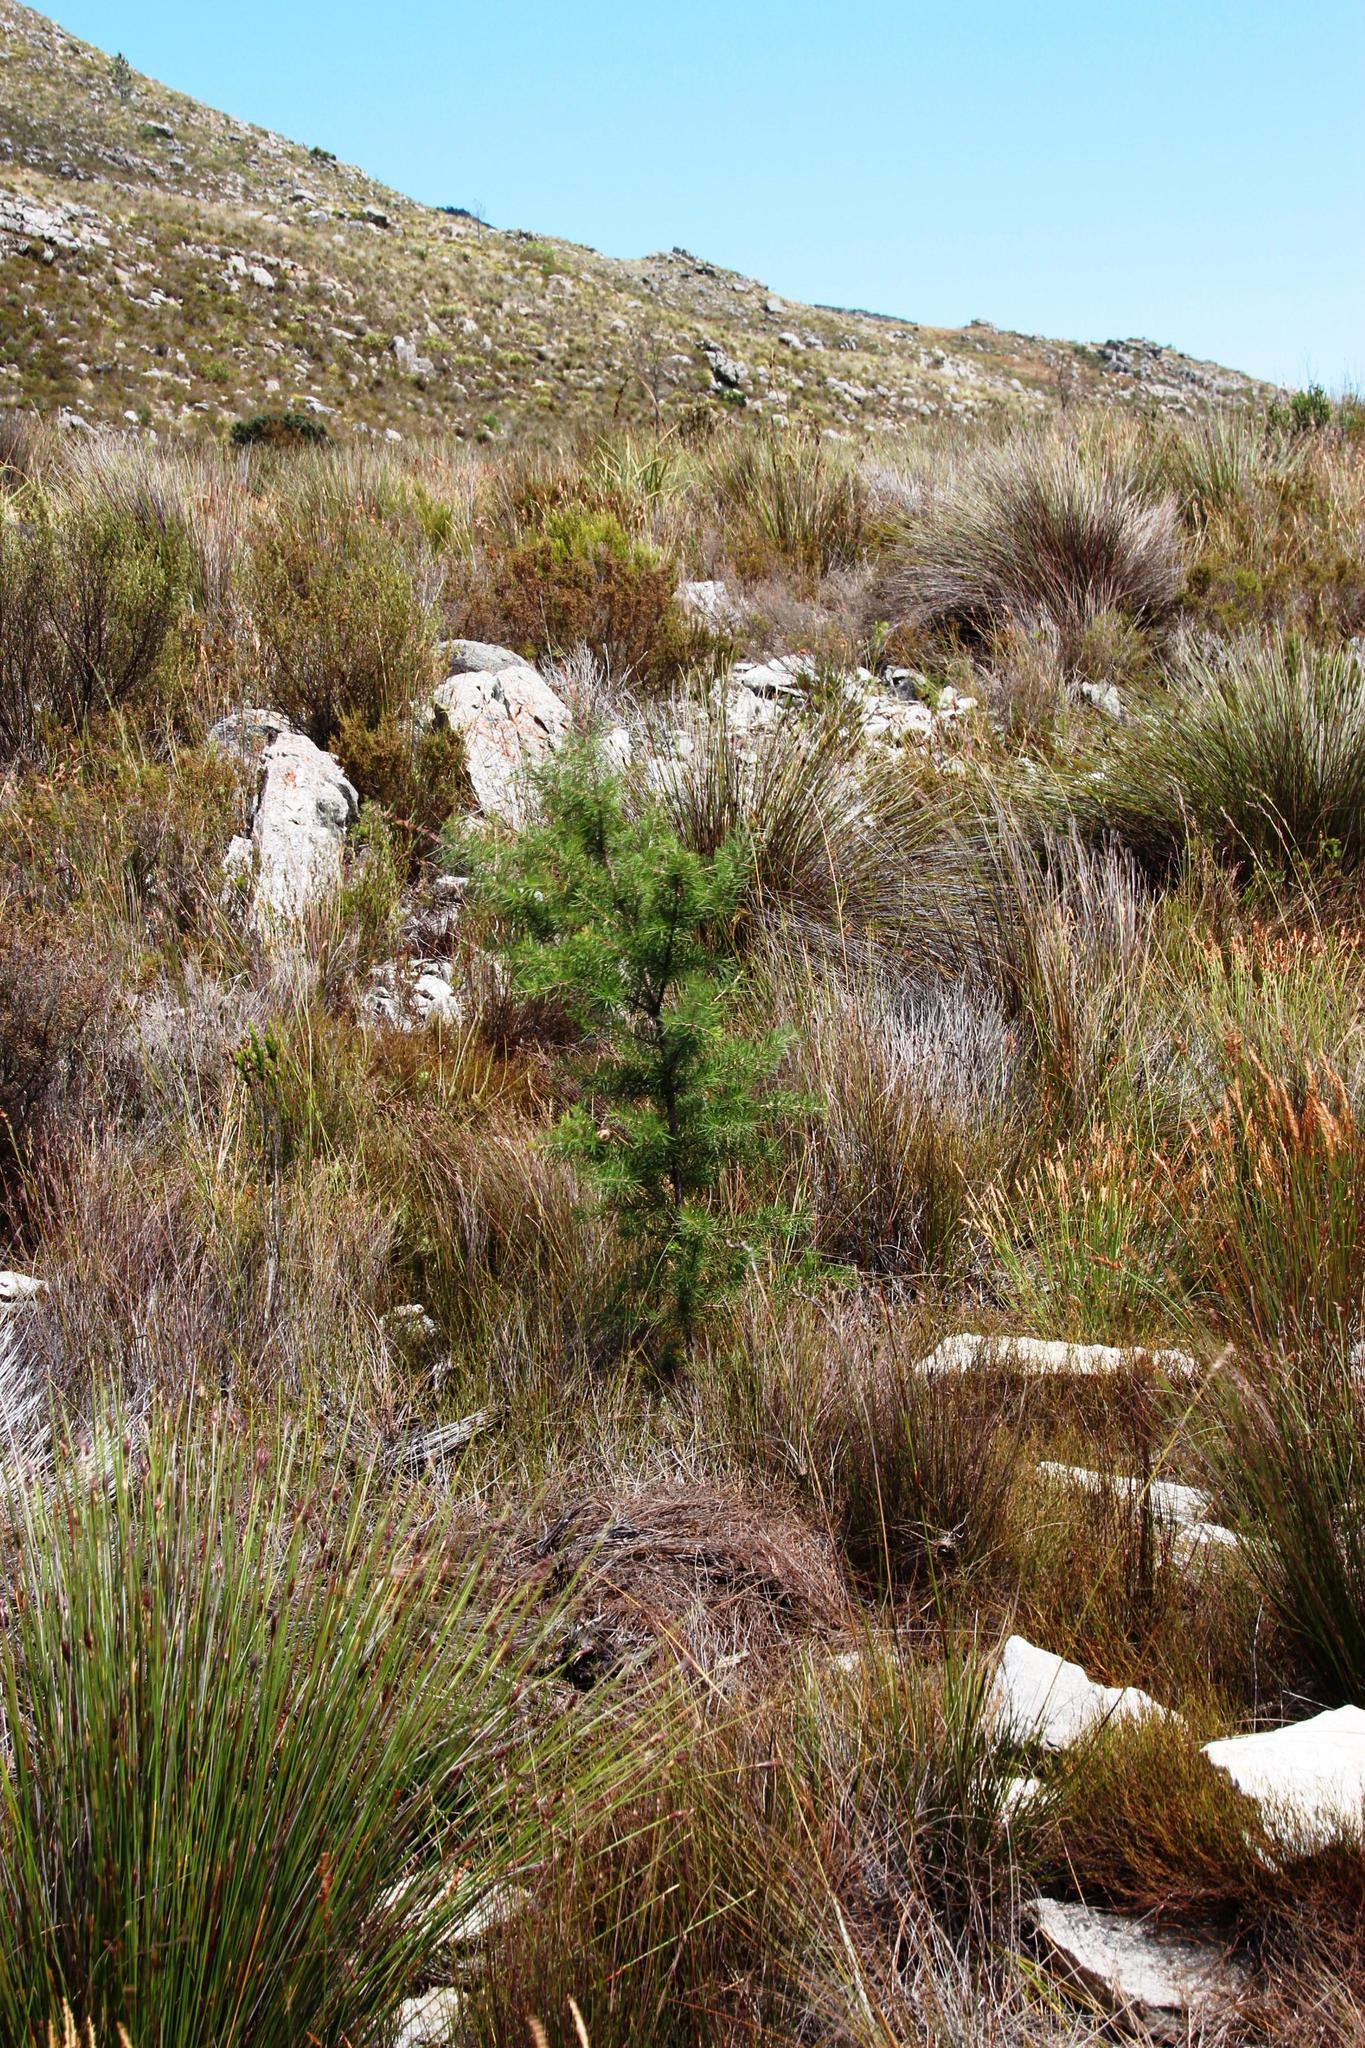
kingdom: Plantae
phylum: Tracheophyta
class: Magnoliopsida
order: Proteales
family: Proteaceae
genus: Hakea
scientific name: Hakea sericea
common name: Needle bush
